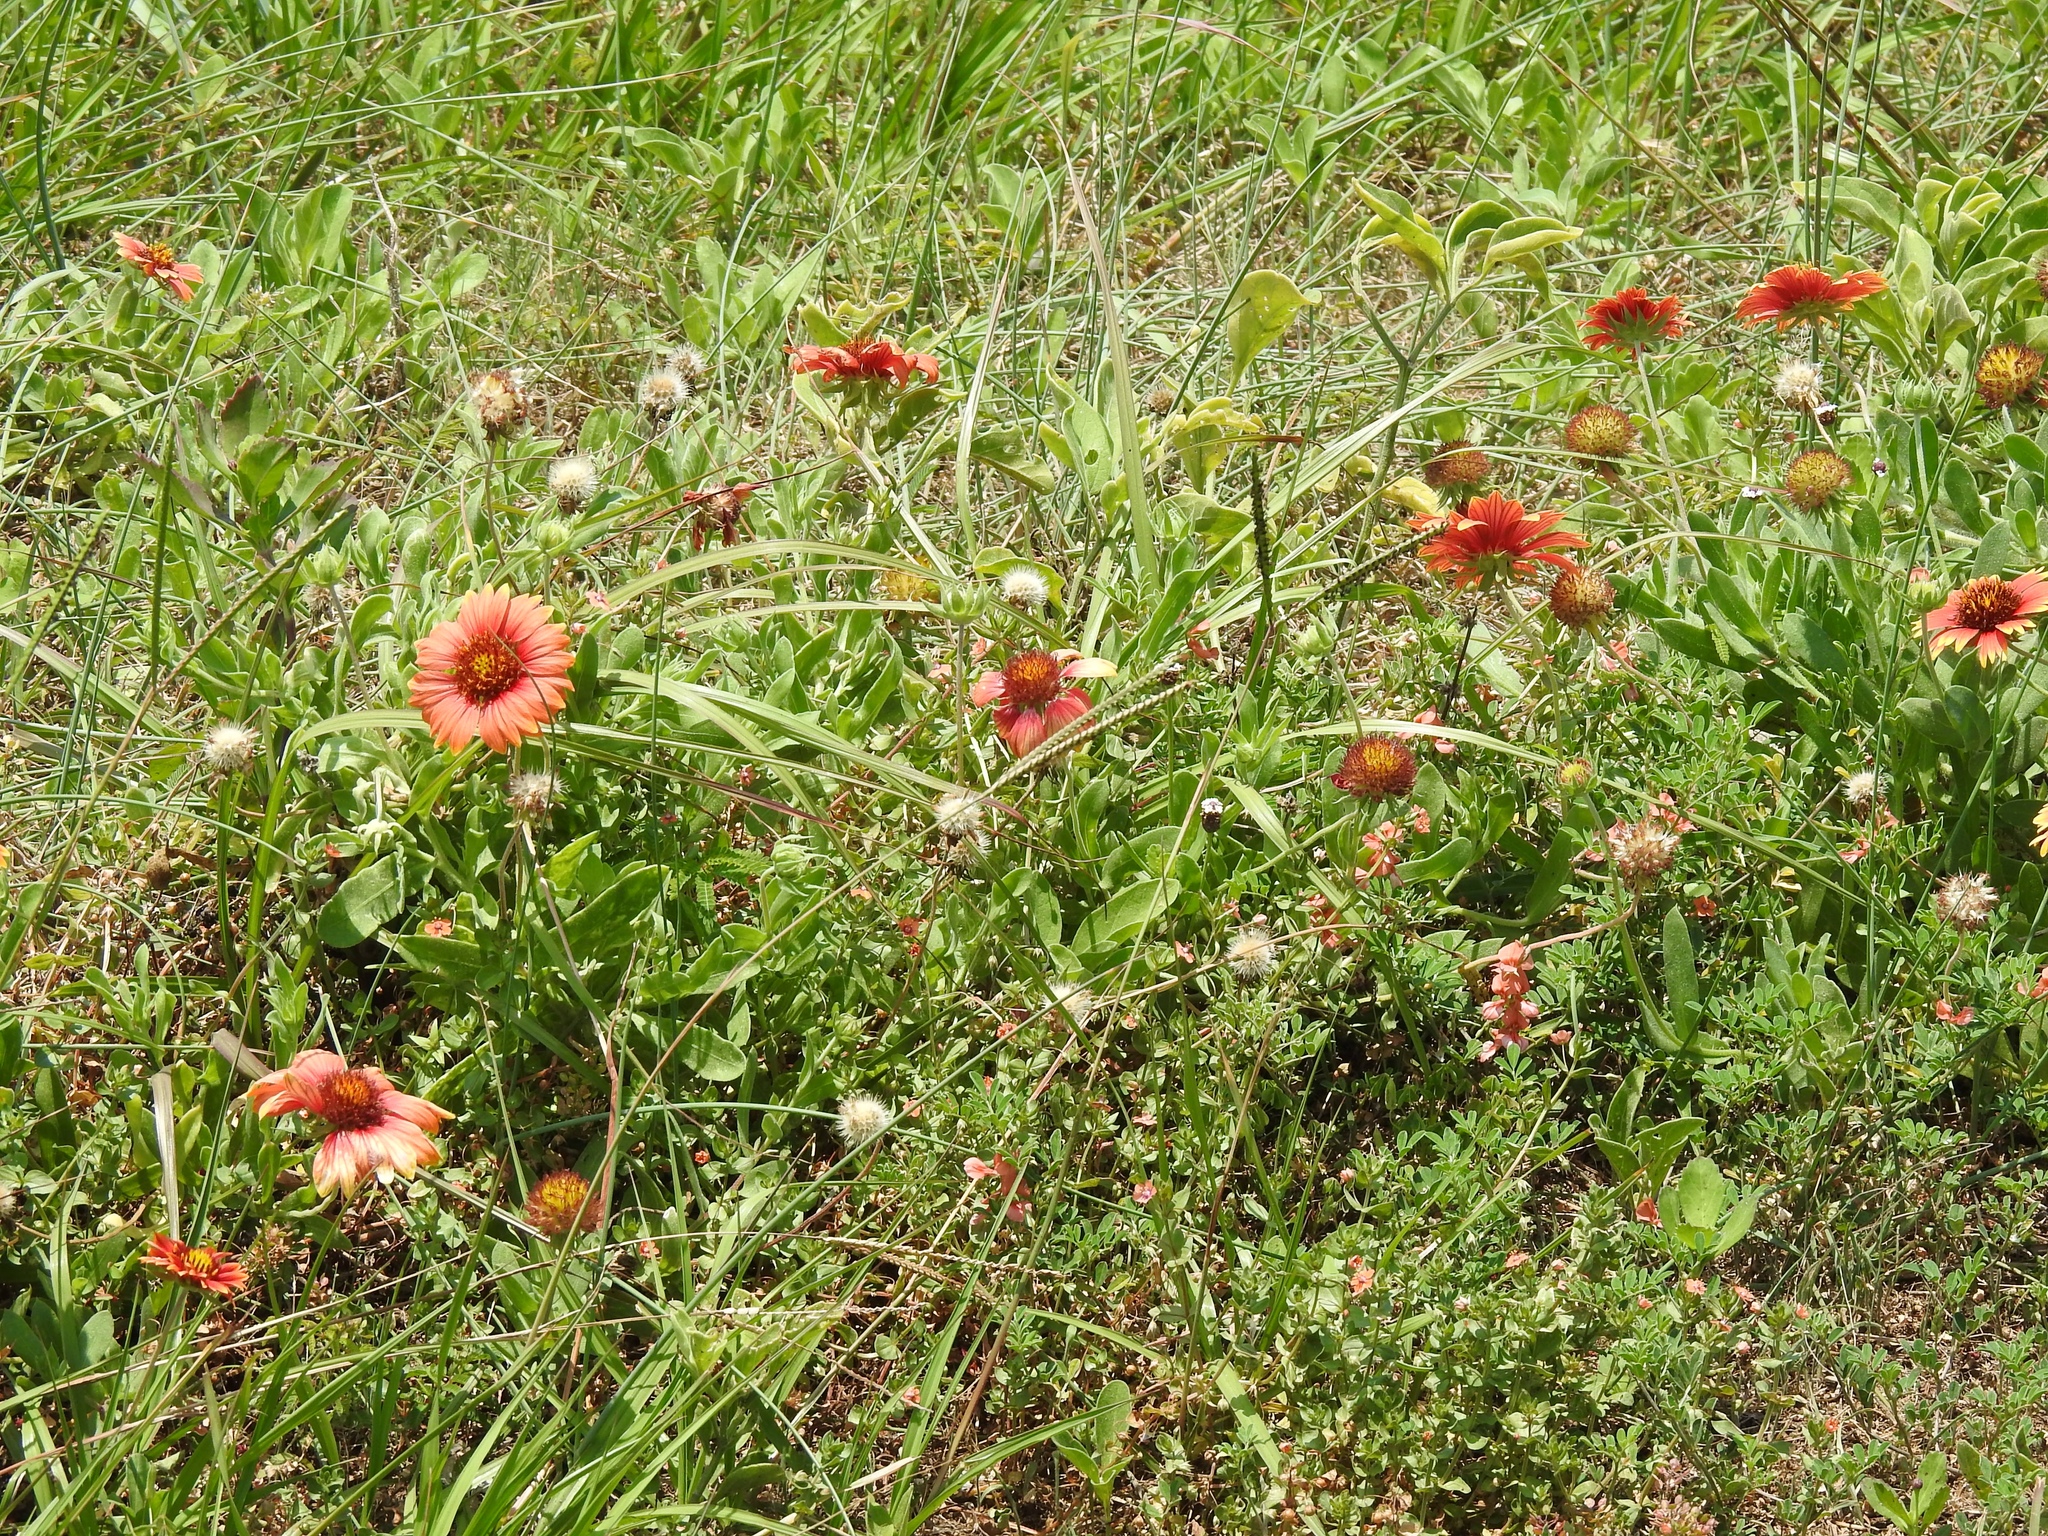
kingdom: Plantae
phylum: Tracheophyta
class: Magnoliopsida
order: Asterales
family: Asteraceae
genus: Gaillardia
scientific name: Gaillardia pulchella
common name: Firewheel
